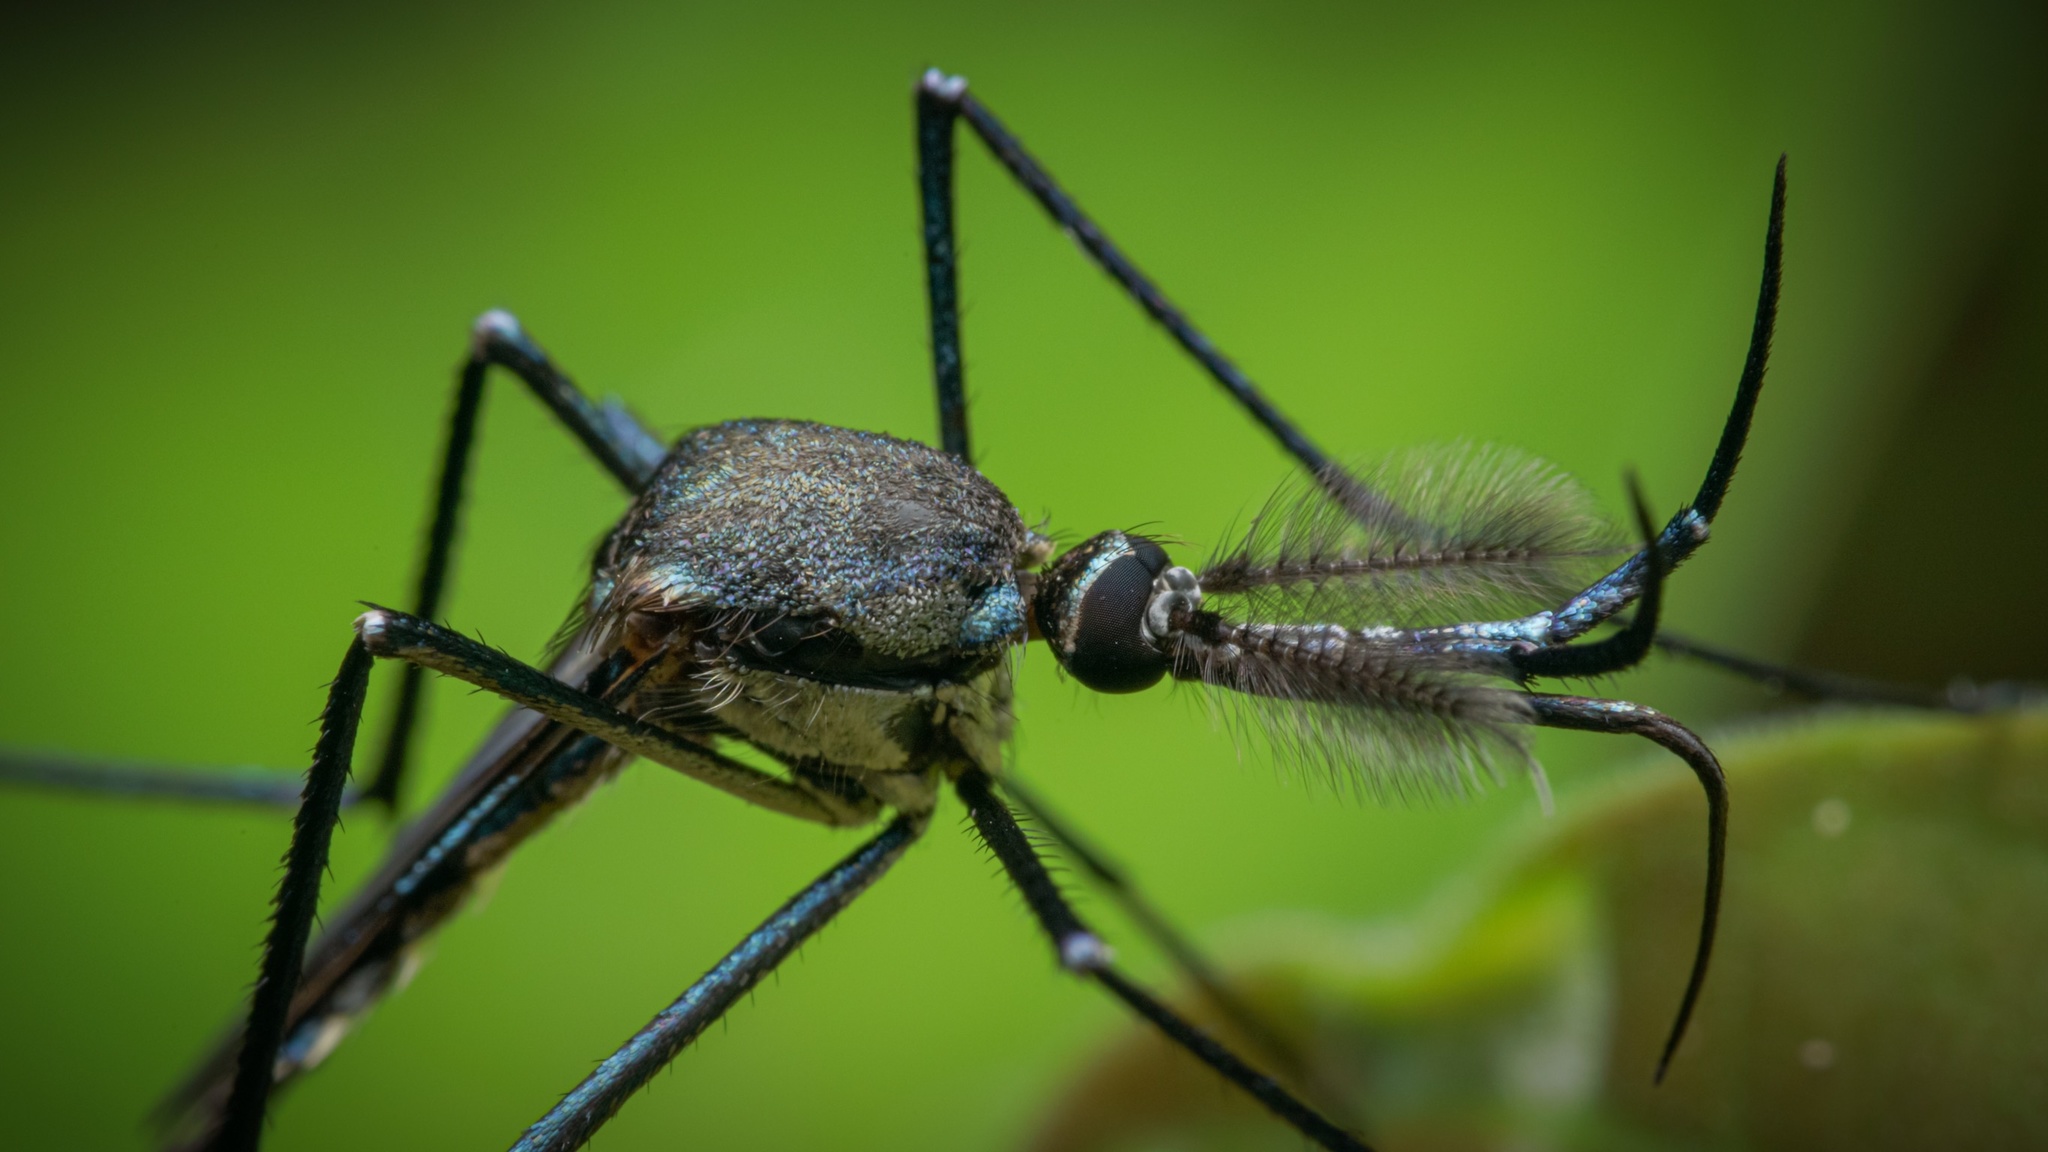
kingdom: Animalia
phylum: Arthropoda
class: Insecta
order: Diptera
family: Culicidae
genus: Toxorhynchites
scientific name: Toxorhynchites splendens
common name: Mosquito
